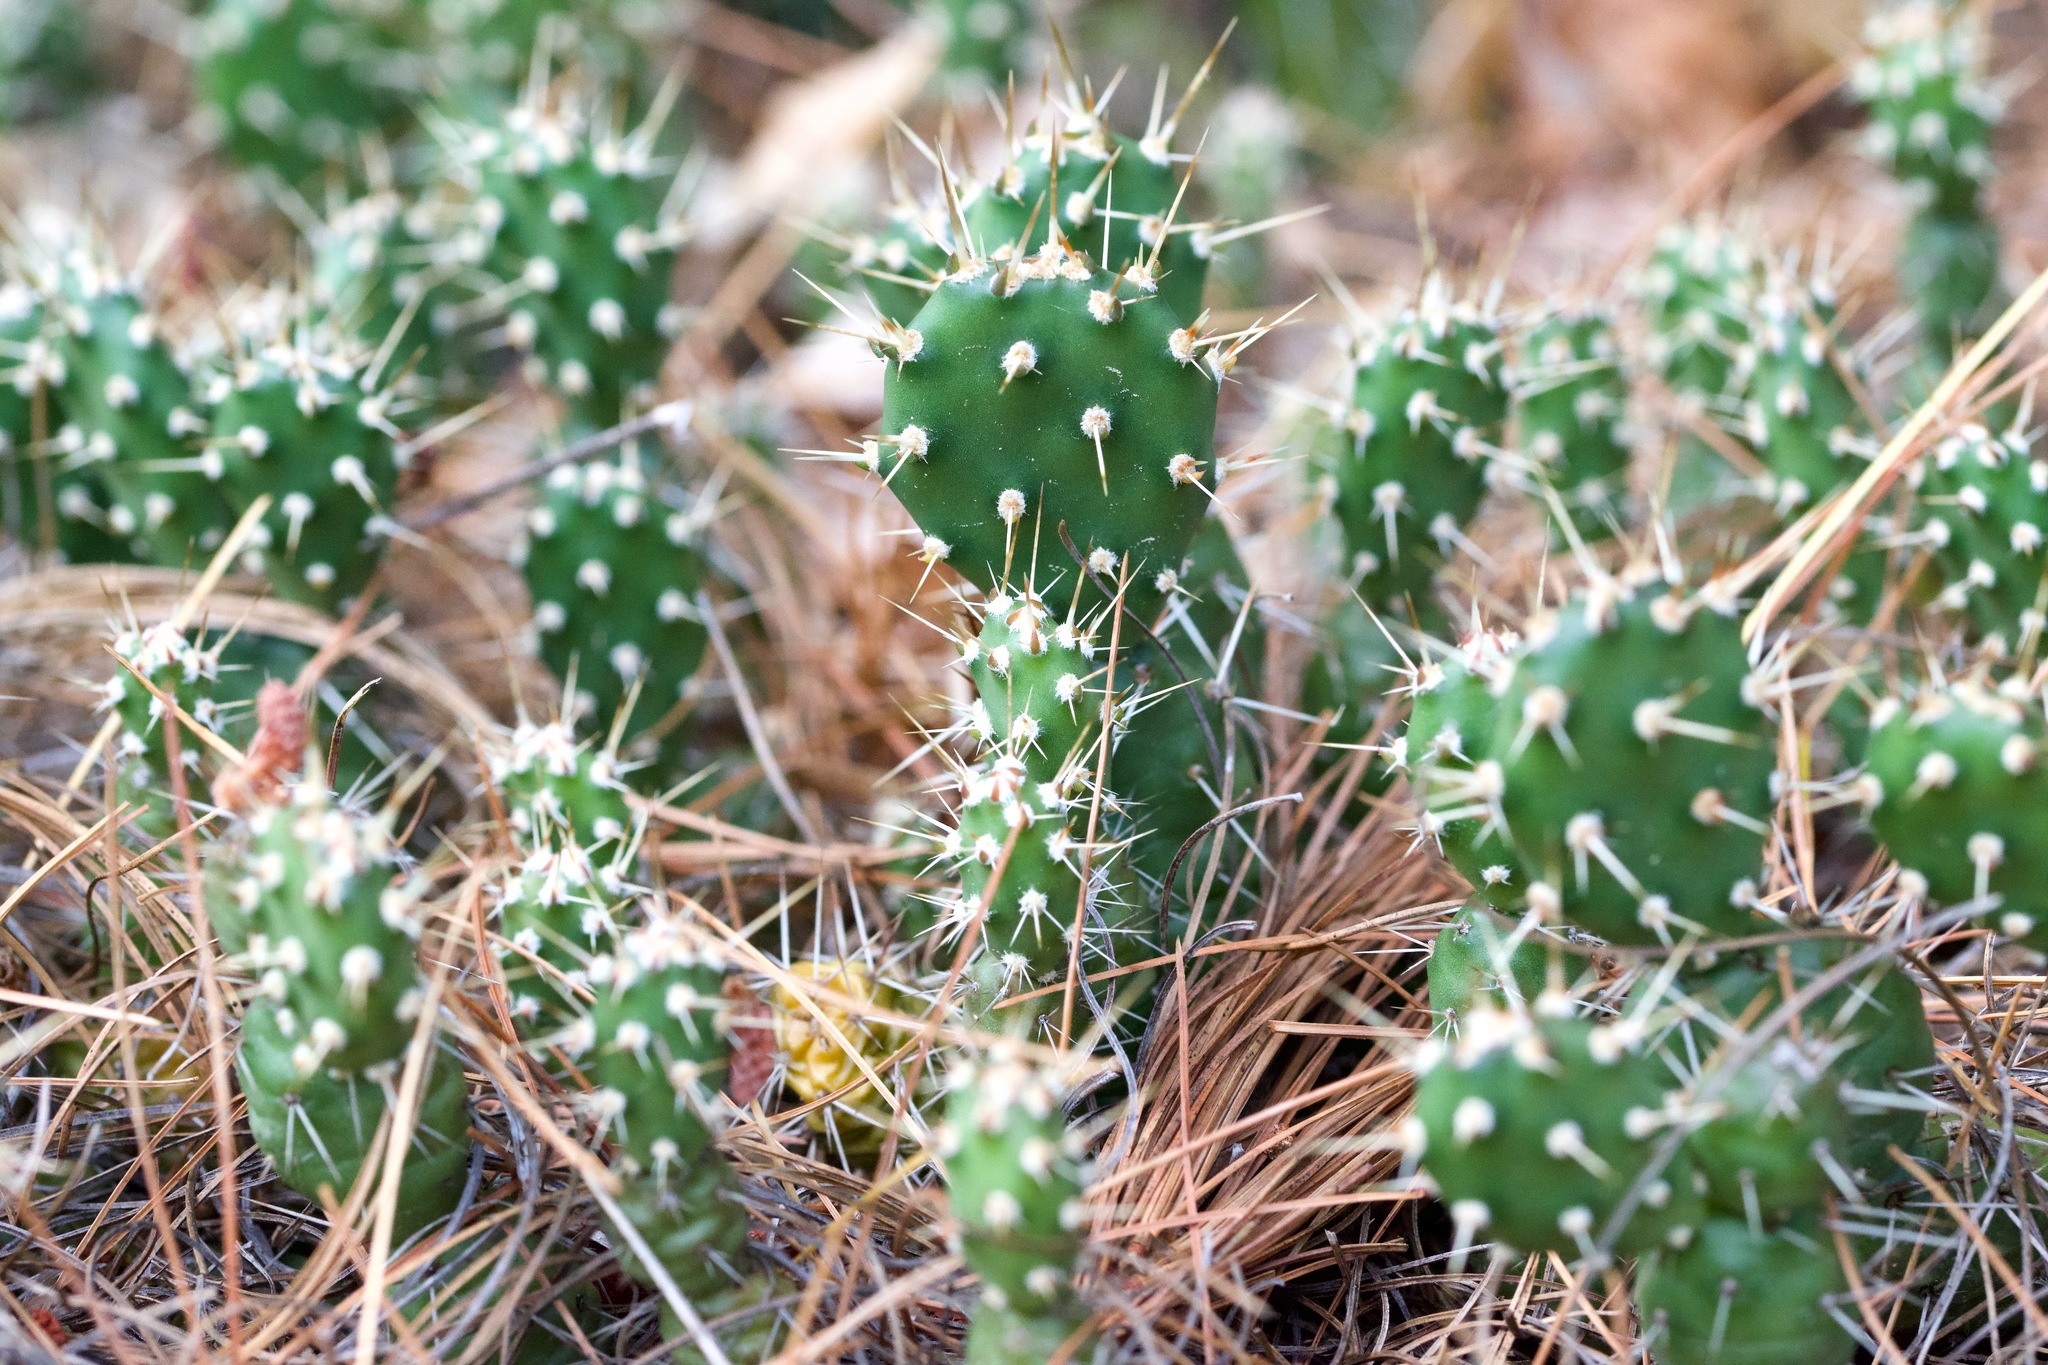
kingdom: Plantae
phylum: Tracheophyta
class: Magnoliopsida
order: Caryophyllales
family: Cactaceae
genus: Opuntia
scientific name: Opuntia fragilis
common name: Brittle cactus
